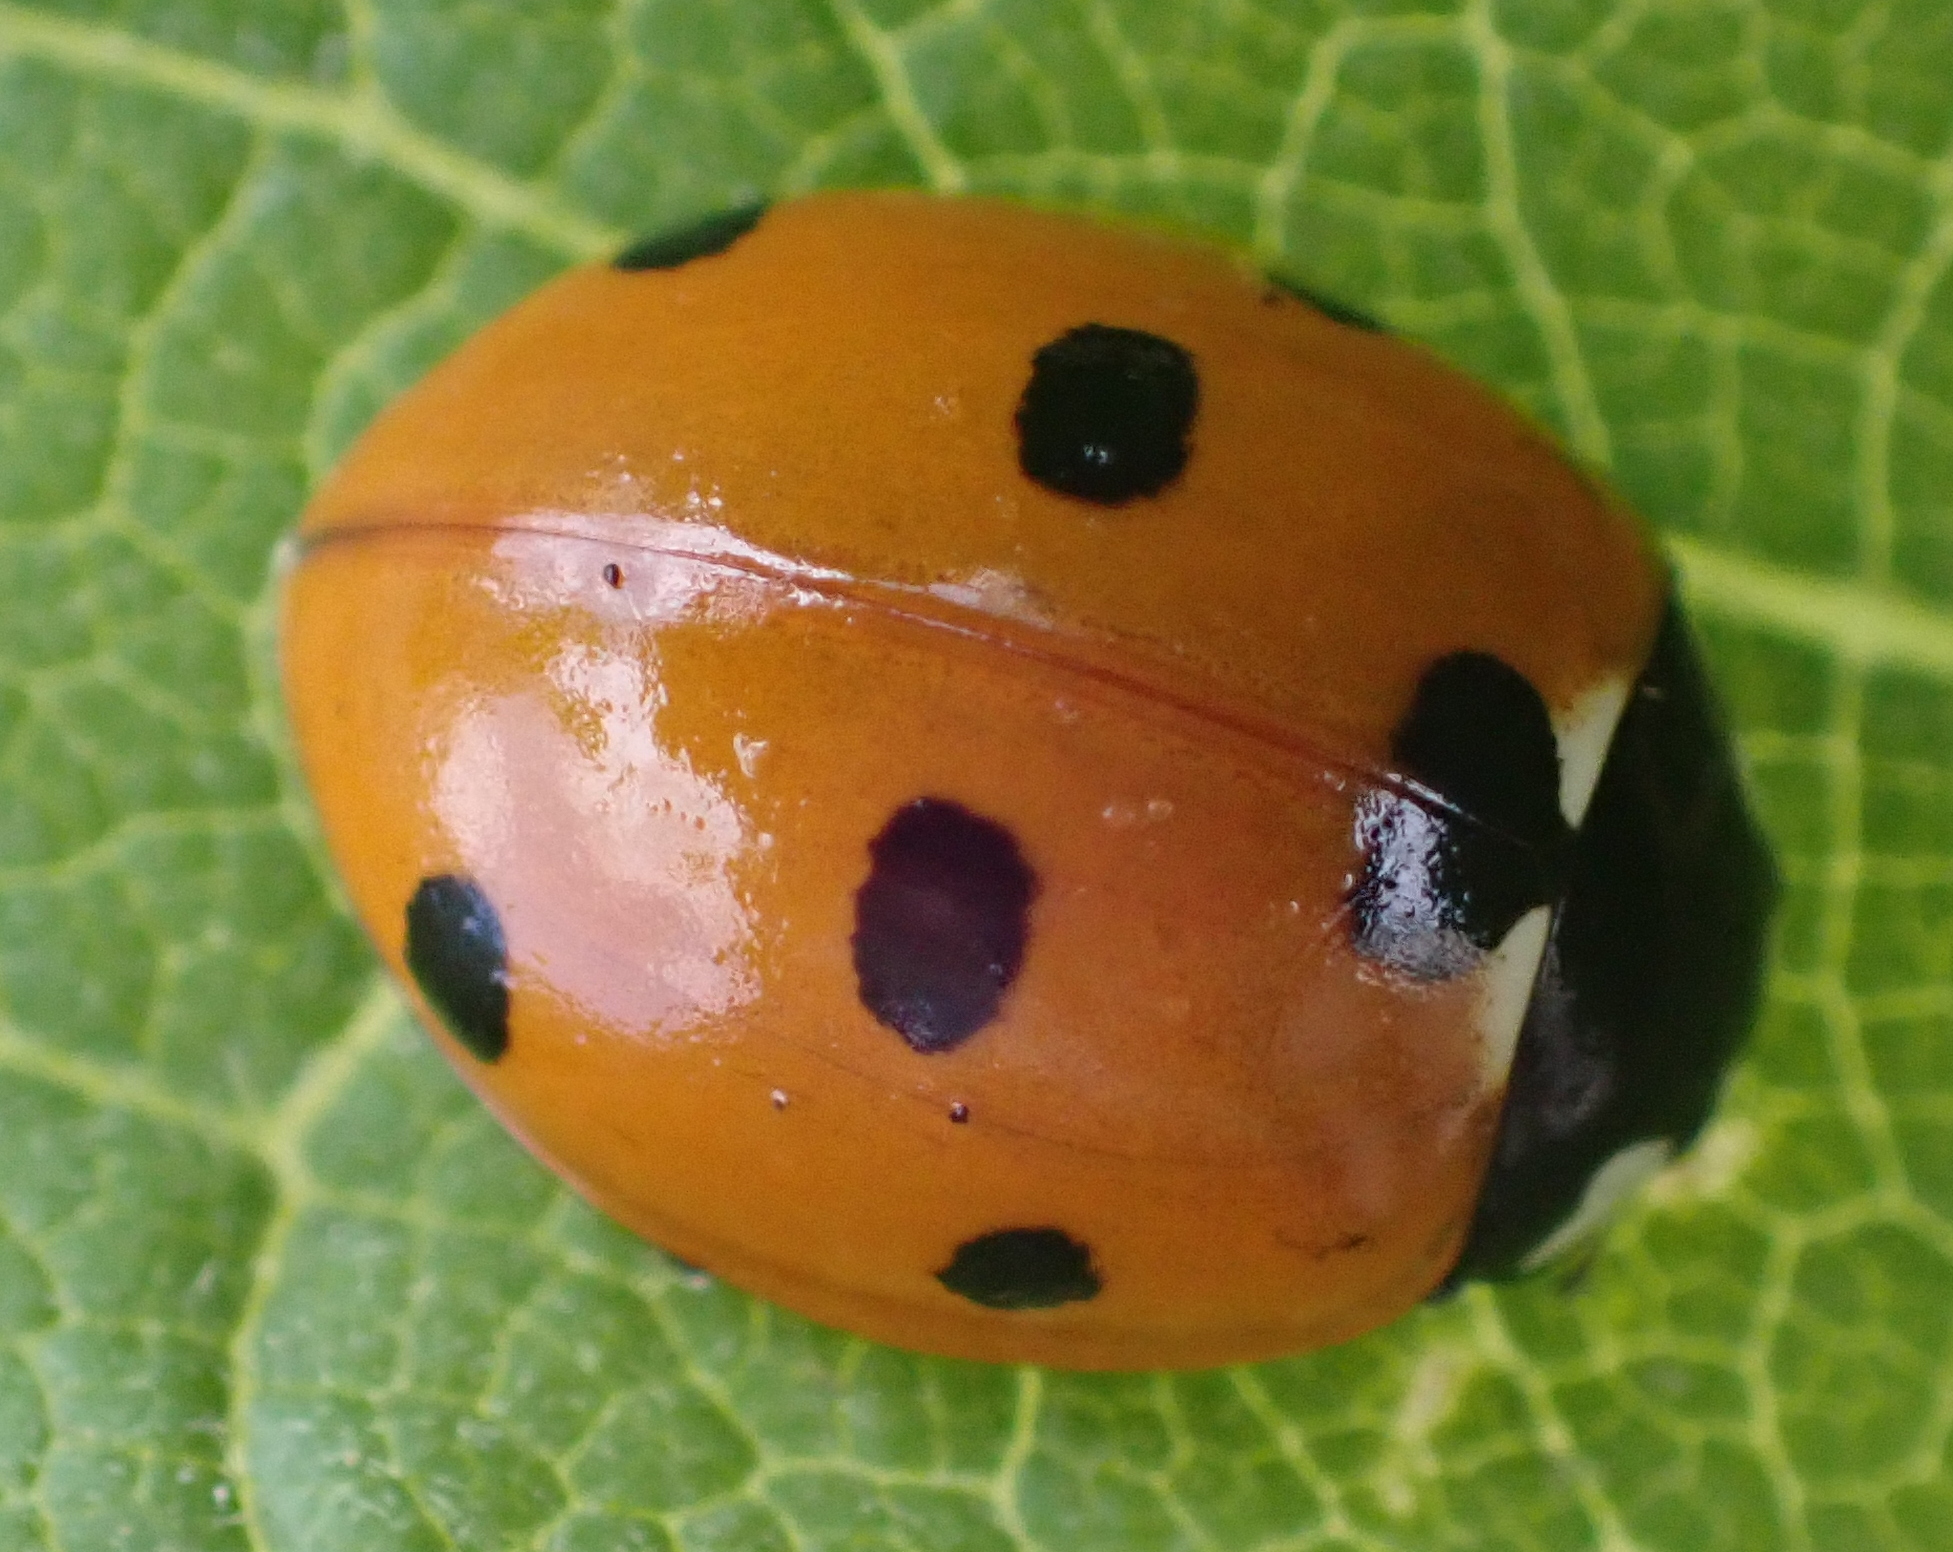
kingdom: Animalia
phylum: Arthropoda
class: Insecta
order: Coleoptera
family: Coccinellidae
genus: Coccinella
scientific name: Coccinella septempunctata
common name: Sevenspotted lady beetle
